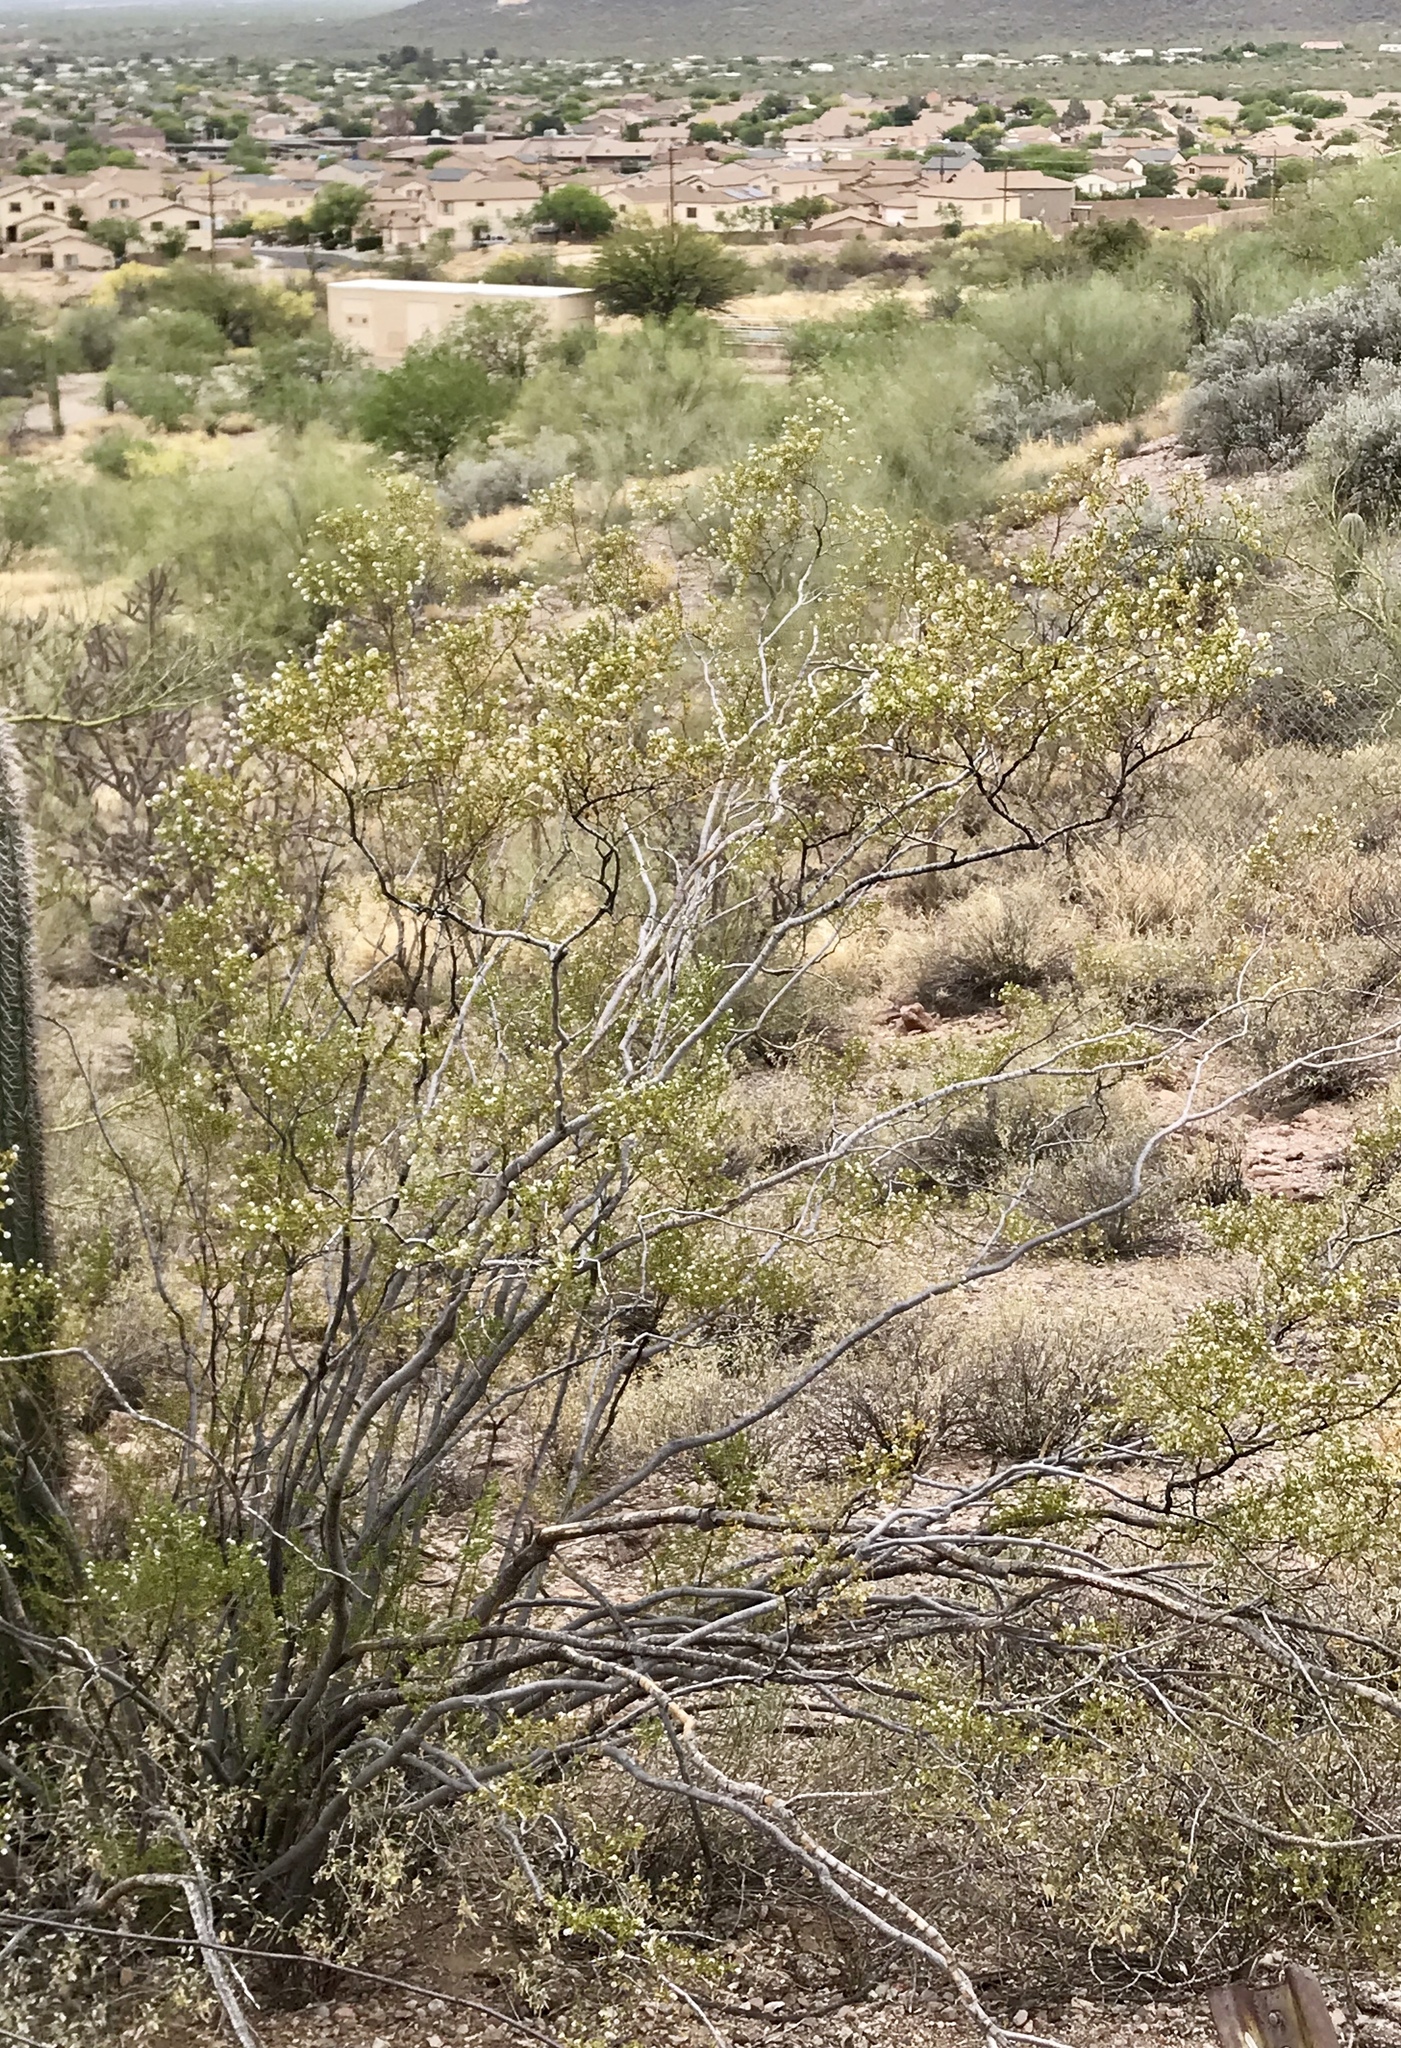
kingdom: Plantae
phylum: Tracheophyta
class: Magnoliopsida
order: Zygophyllales
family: Zygophyllaceae
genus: Larrea
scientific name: Larrea tridentata
